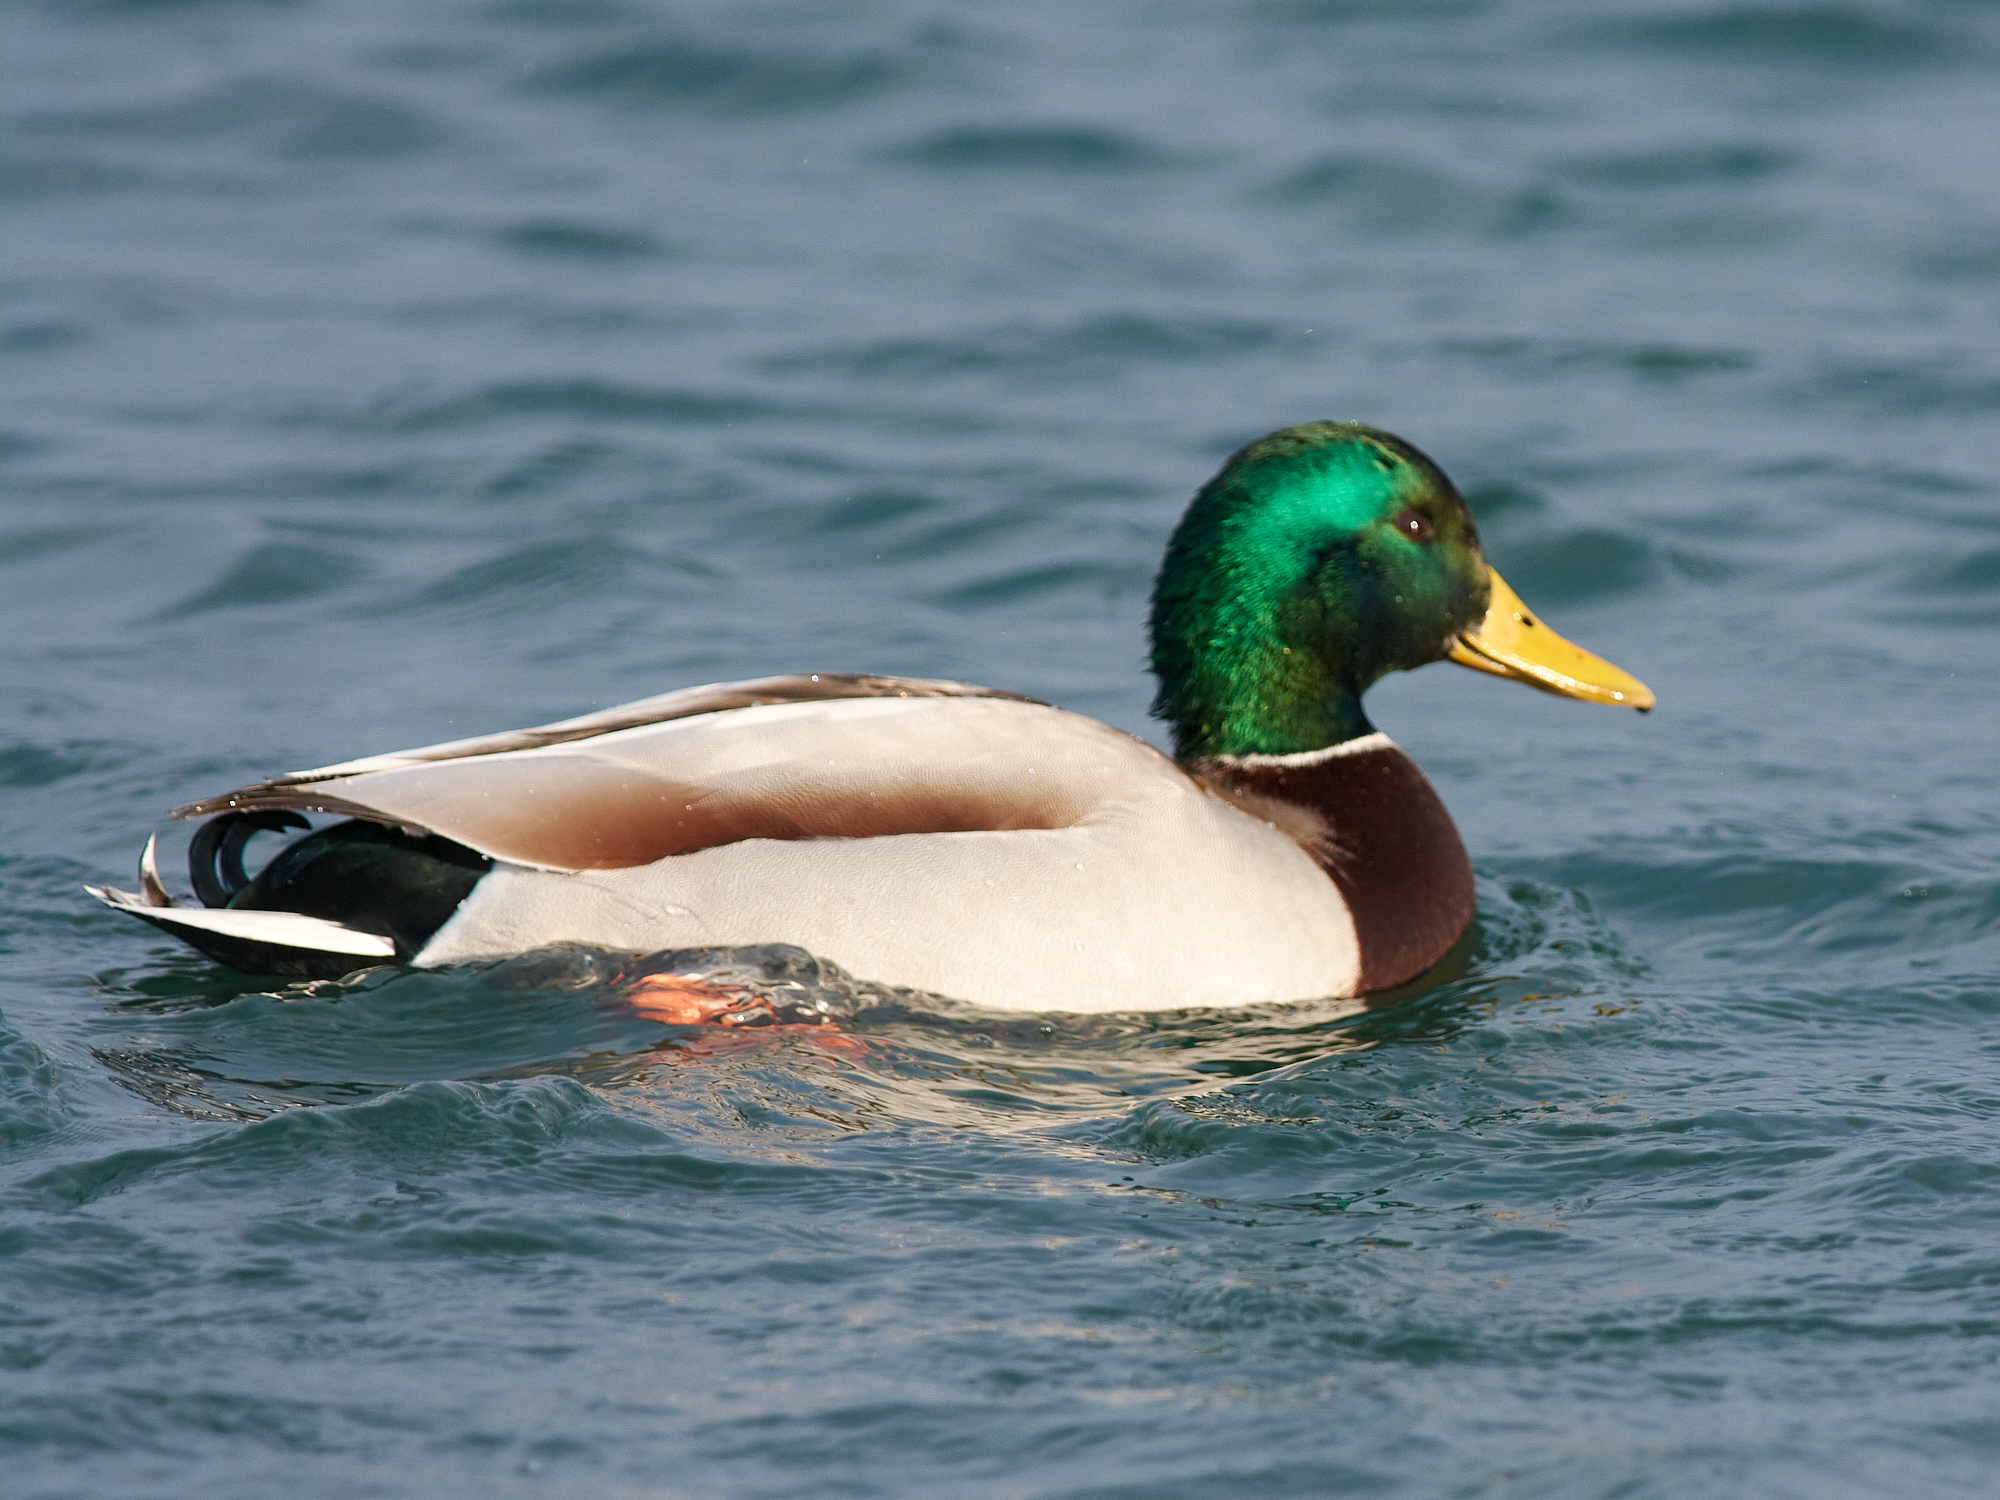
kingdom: Animalia
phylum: Chordata
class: Aves
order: Anseriformes
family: Anatidae
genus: Anas
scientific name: Anas platyrhynchos
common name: Mallard
